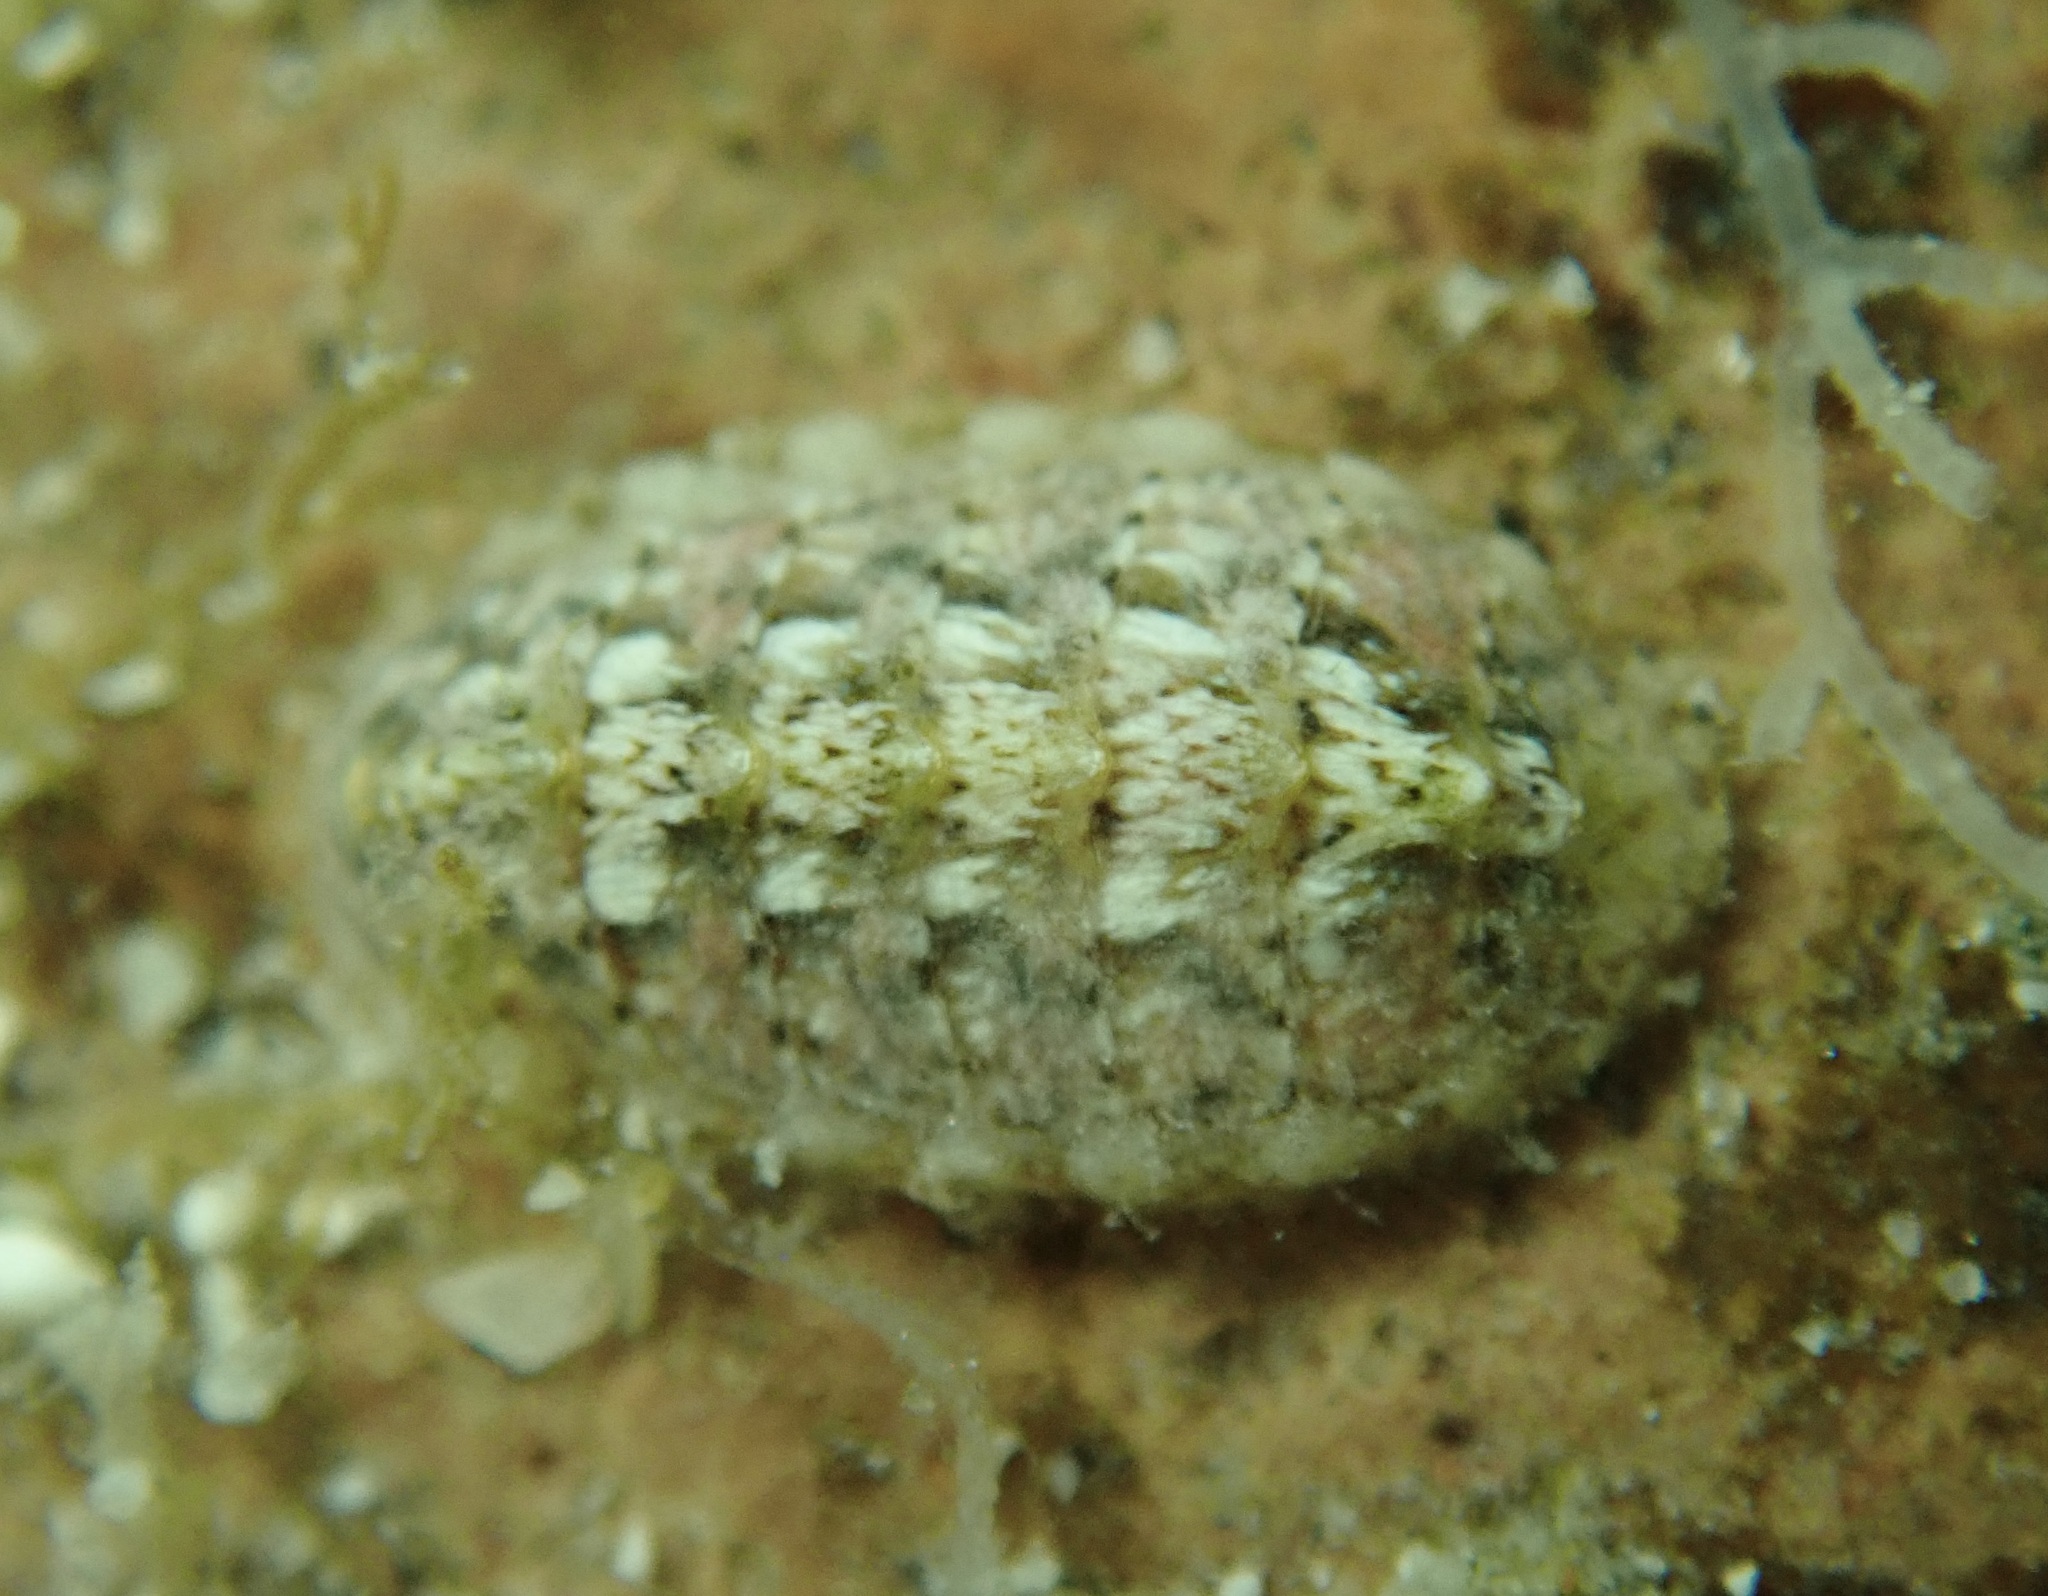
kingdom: Animalia
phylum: Mollusca
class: Polyplacophora
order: Chitonida
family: Tonicellidae
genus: Cyanoplax
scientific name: Cyanoplax beanii
